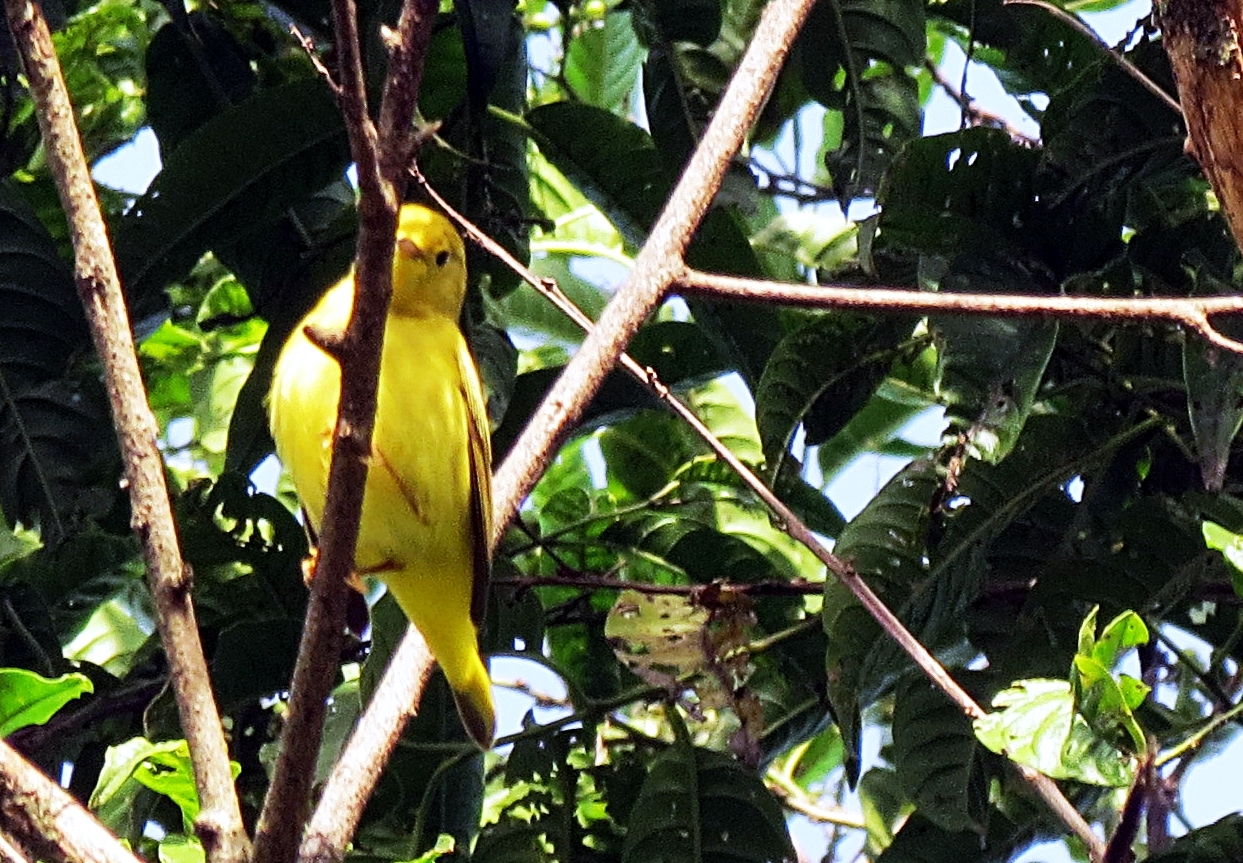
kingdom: Animalia
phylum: Chordata
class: Aves
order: Passeriformes
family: Parulidae
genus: Setophaga
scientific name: Setophaga petechia
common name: Yellow warbler
